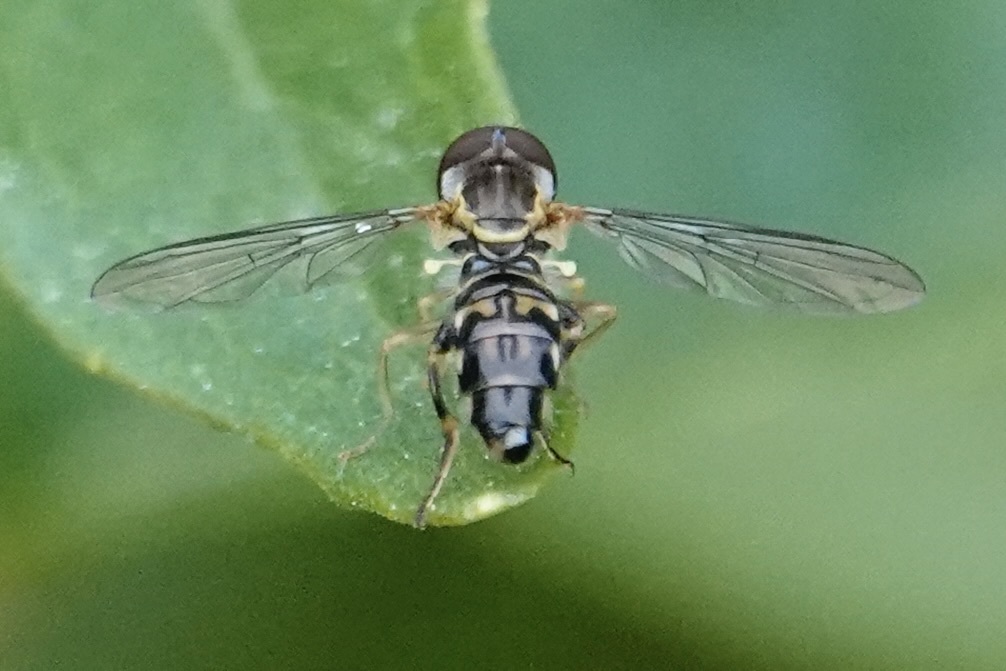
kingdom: Animalia
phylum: Arthropoda
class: Insecta
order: Diptera
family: Syrphidae
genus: Toxomerus
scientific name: Toxomerus geminatus
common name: Eastern calligrapher
